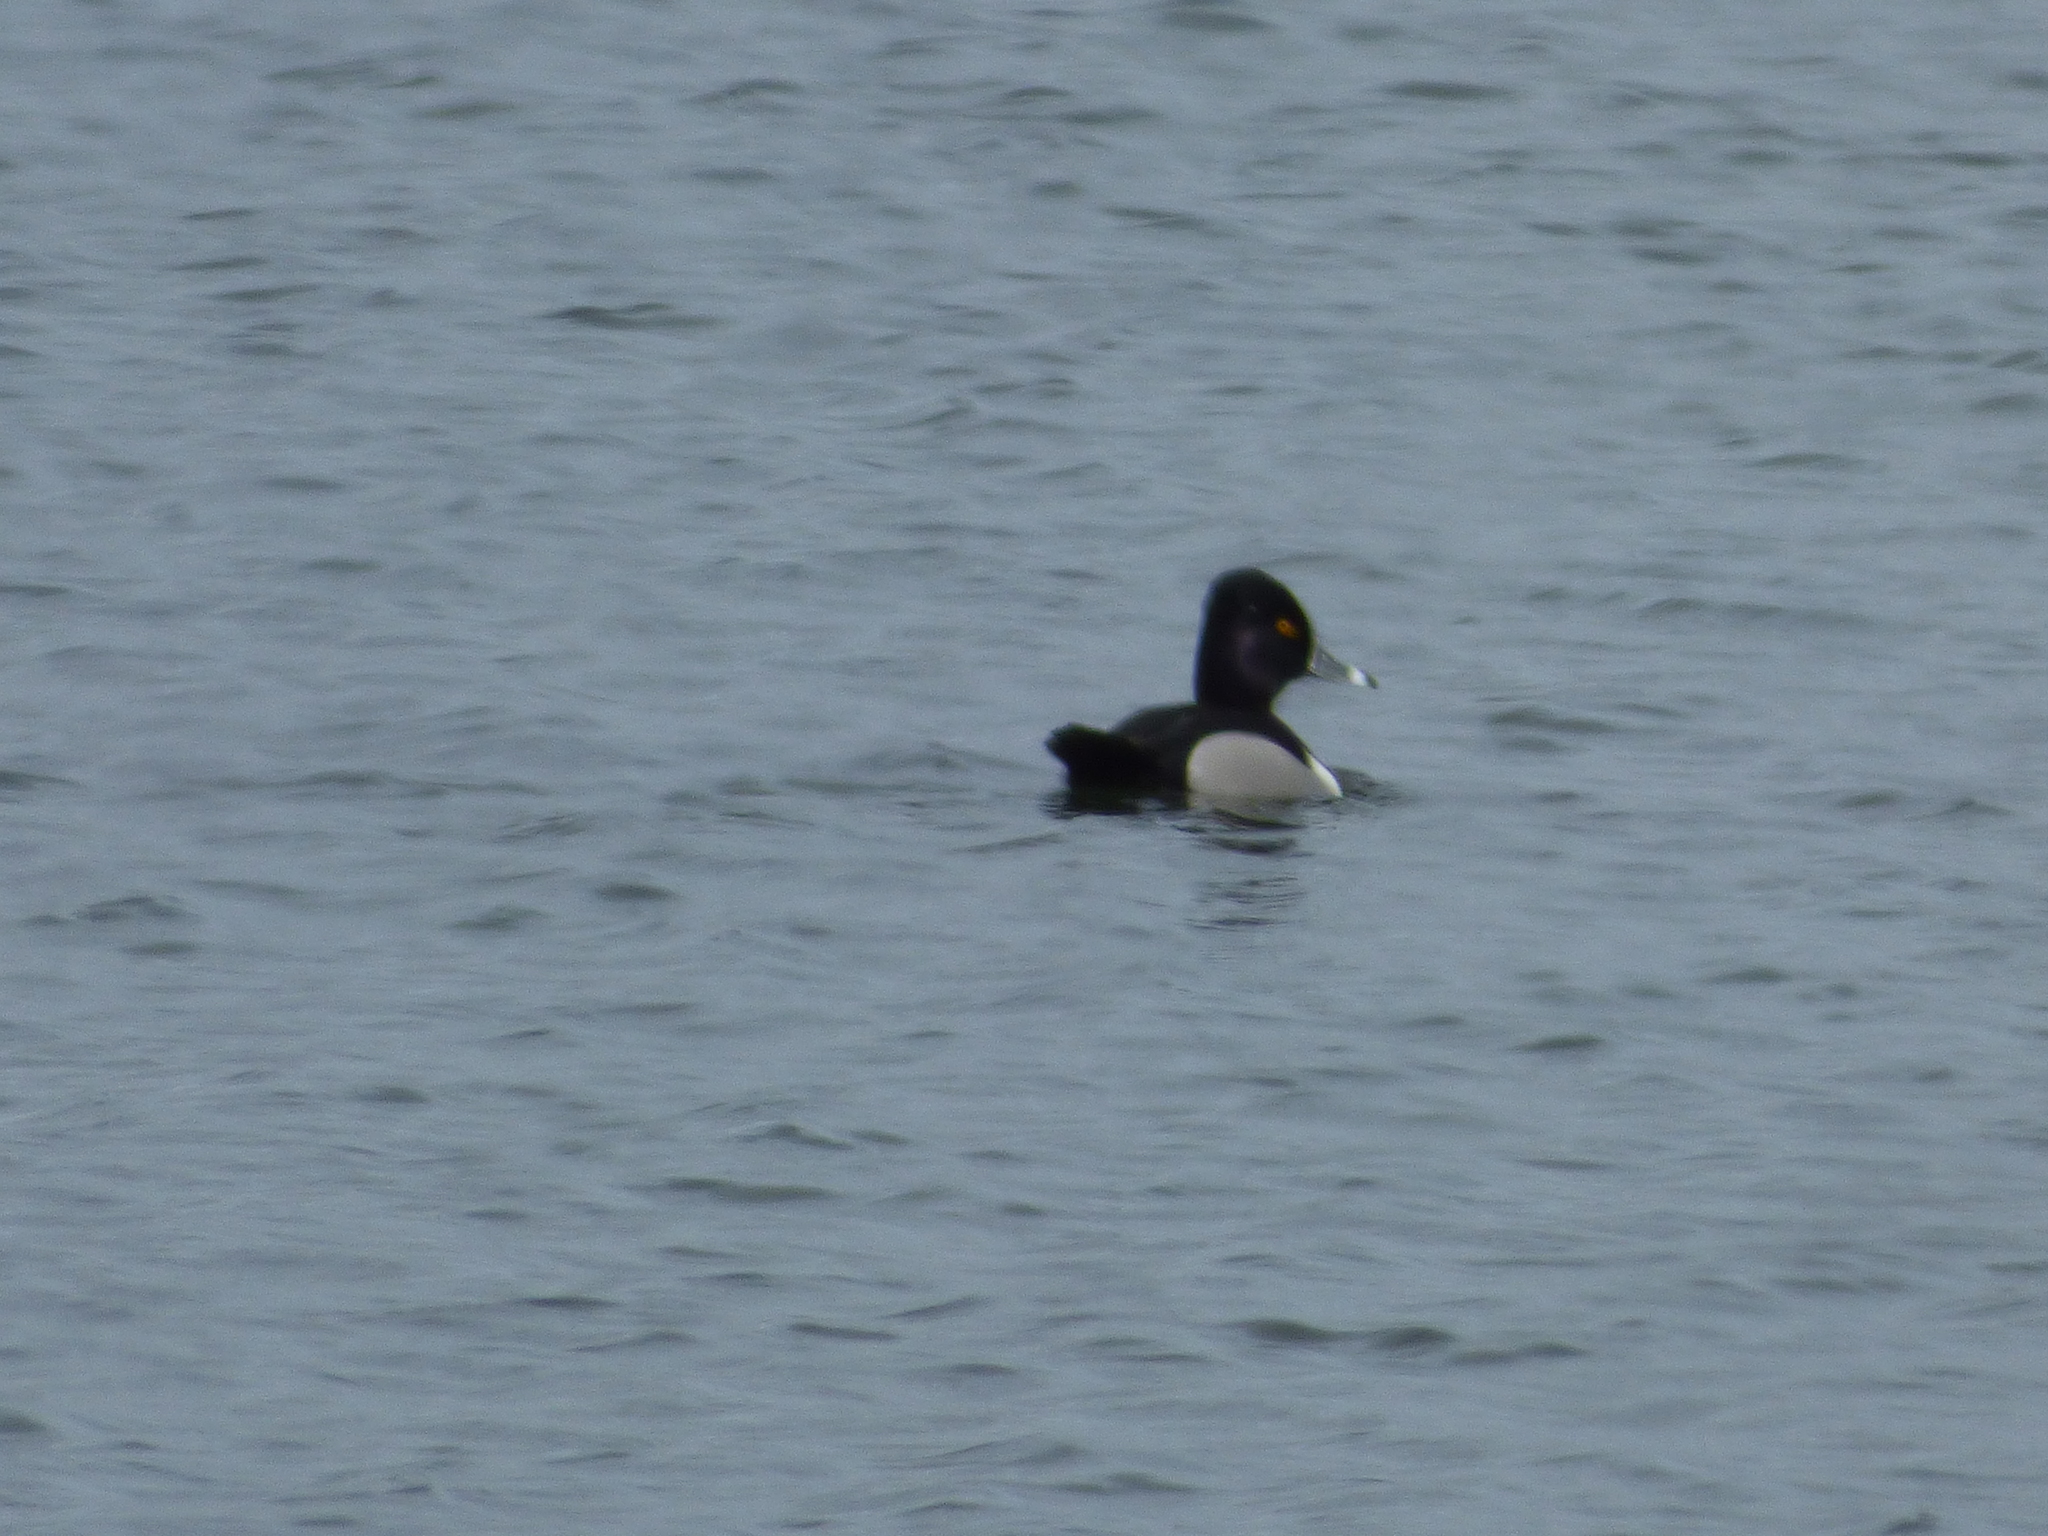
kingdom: Animalia
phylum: Chordata
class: Aves
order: Anseriformes
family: Anatidae
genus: Aythya
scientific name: Aythya collaris
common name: Ring-necked duck
